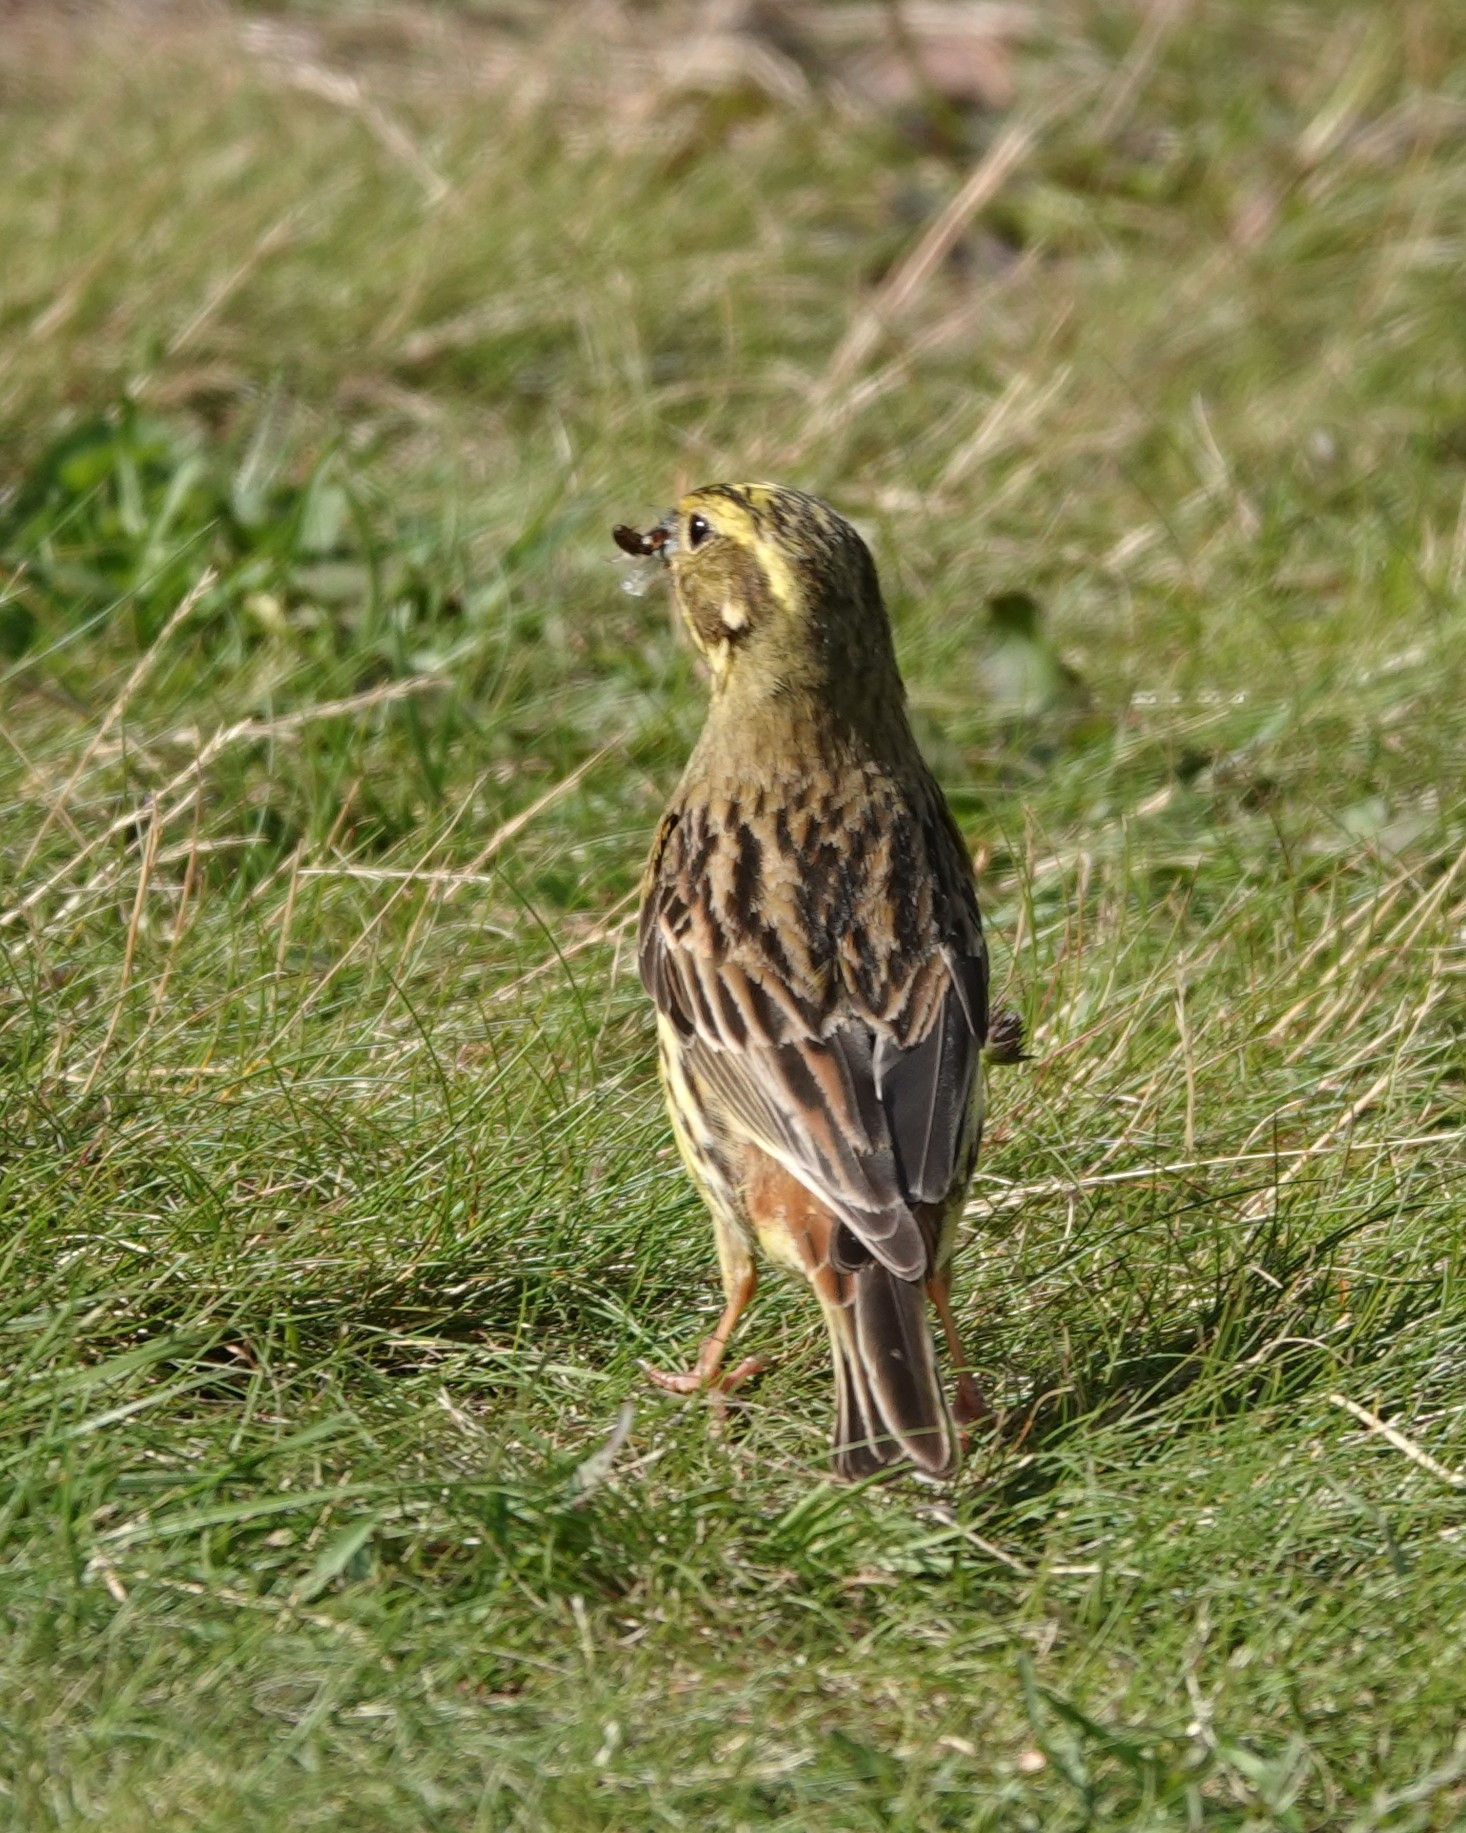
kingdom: Animalia
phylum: Chordata
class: Aves
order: Passeriformes
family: Emberizidae
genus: Emberiza
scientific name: Emberiza citrinella
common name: Yellowhammer
